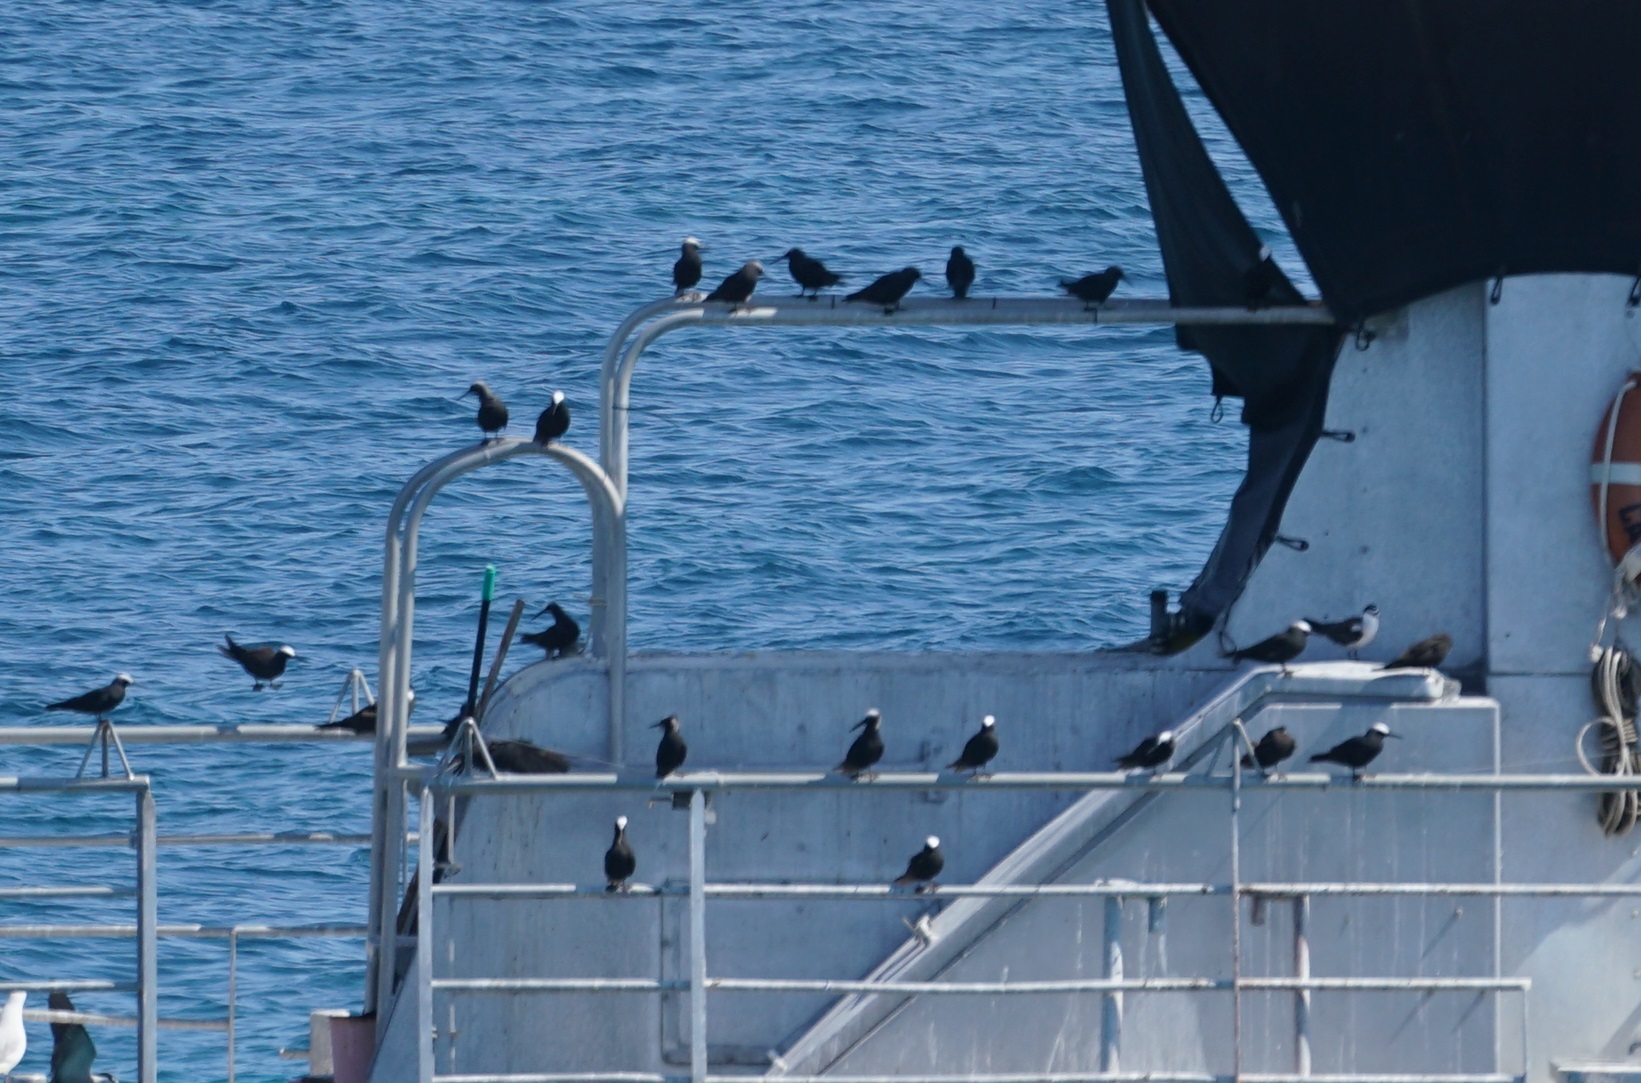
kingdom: Animalia
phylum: Chordata
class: Aves
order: Charadriiformes
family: Laridae
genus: Anous
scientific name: Anous minutus
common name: Black noddy
